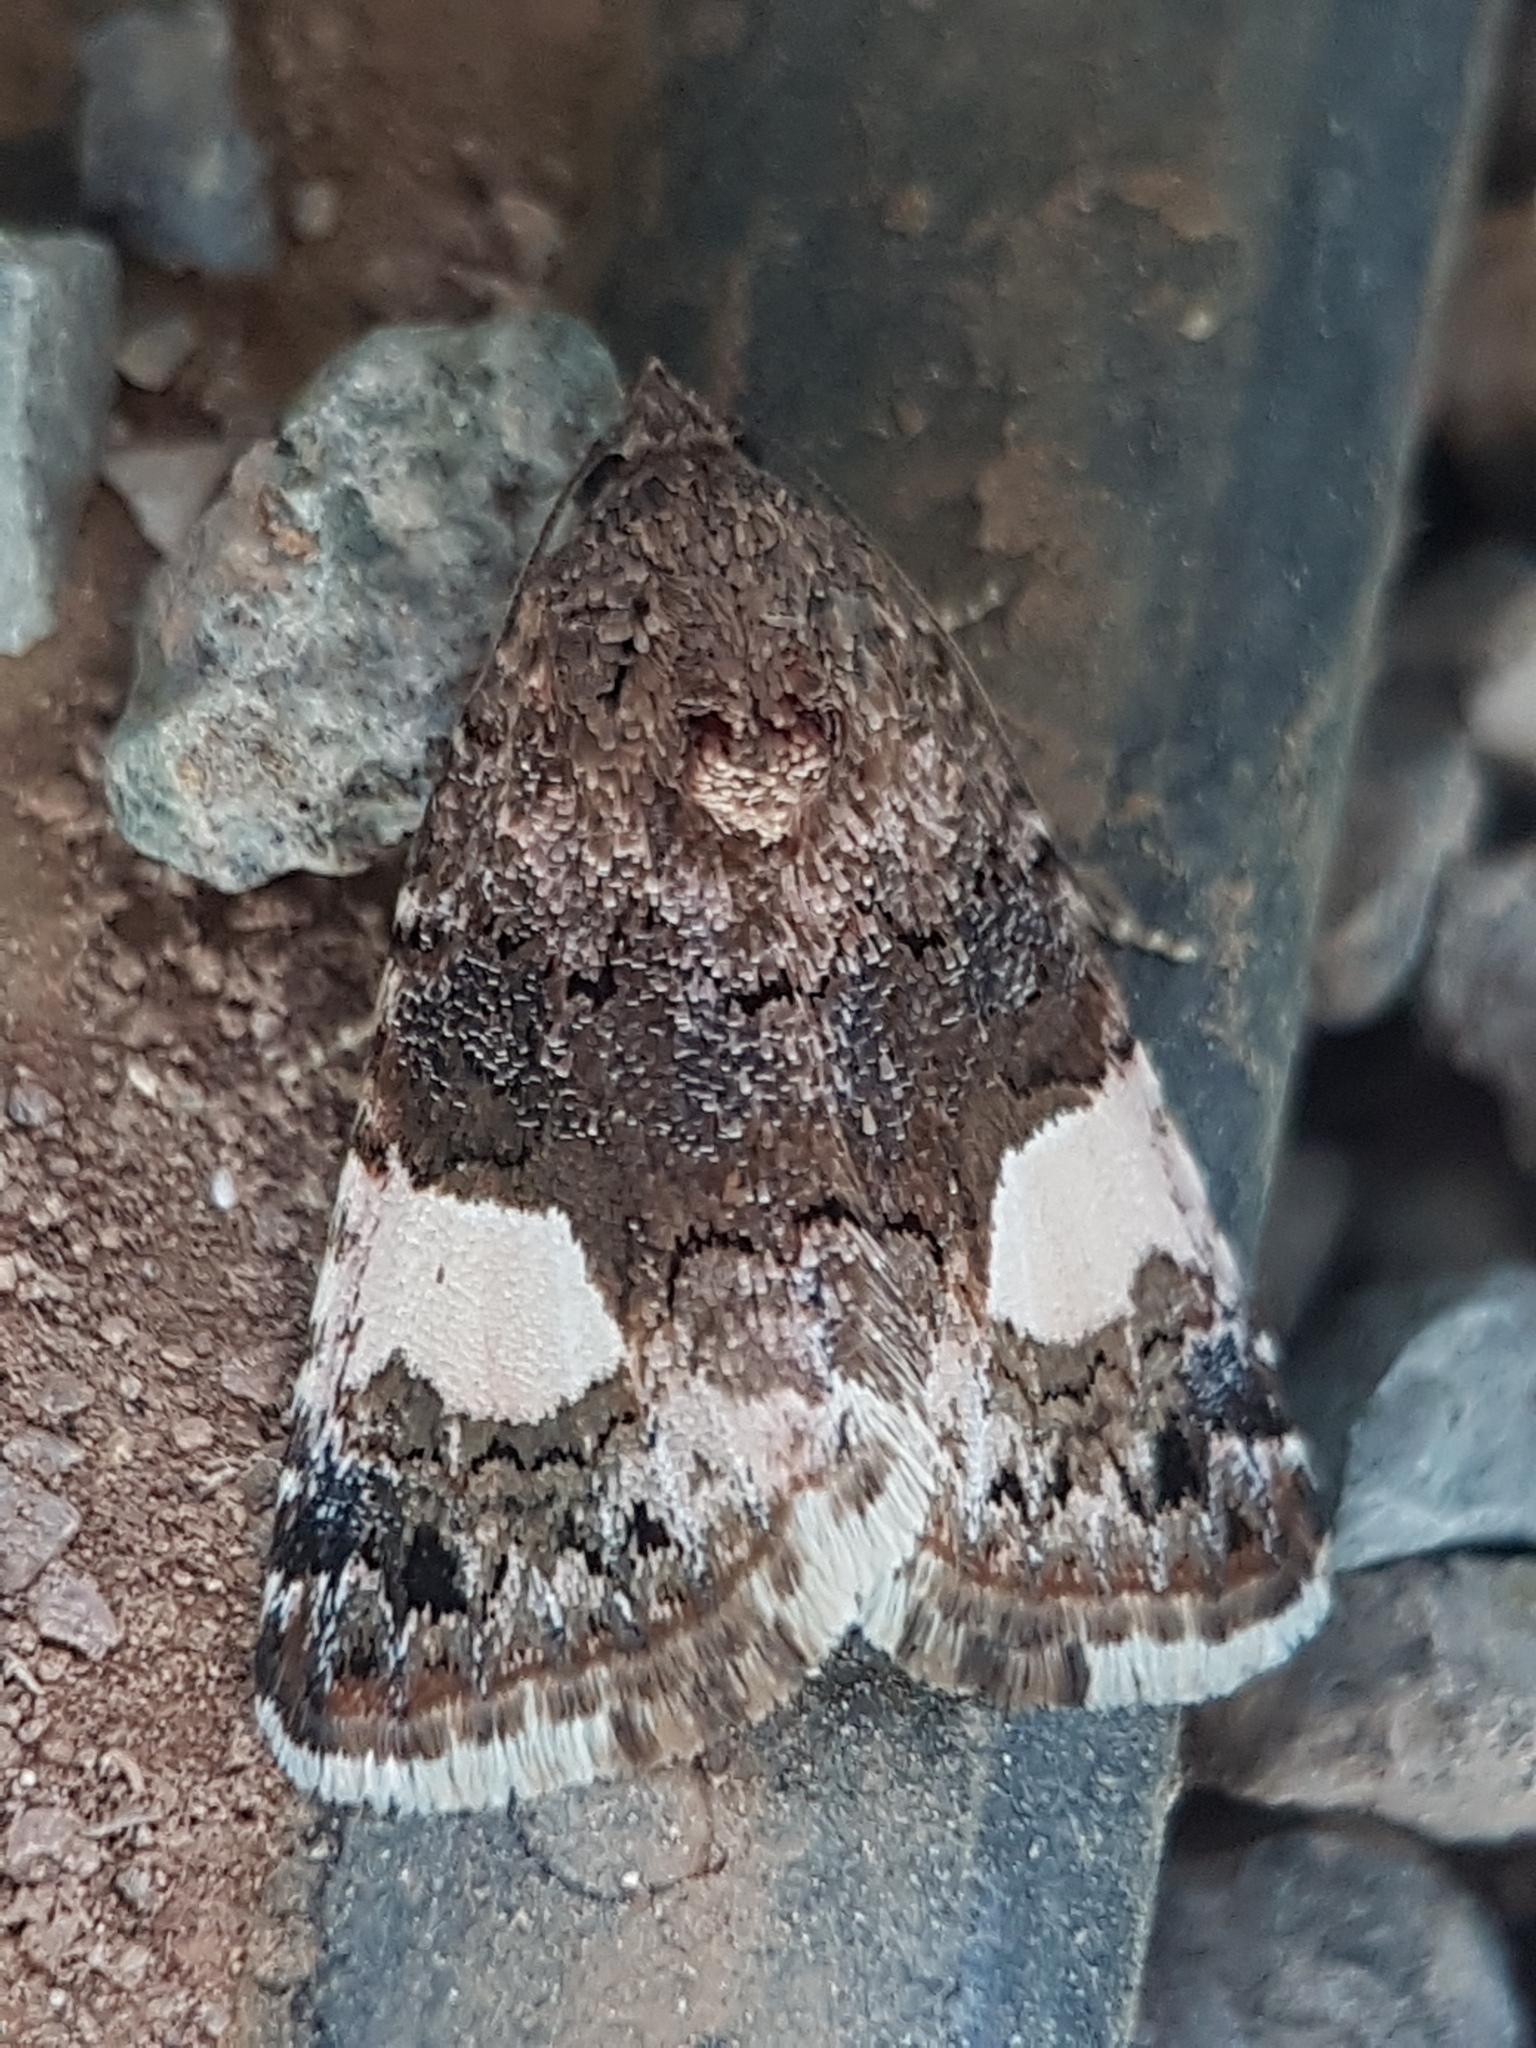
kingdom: Animalia
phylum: Arthropoda
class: Insecta
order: Lepidoptera
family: Erebidae
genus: Tyta
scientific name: Tyta luctuosa
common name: Four-spotted
